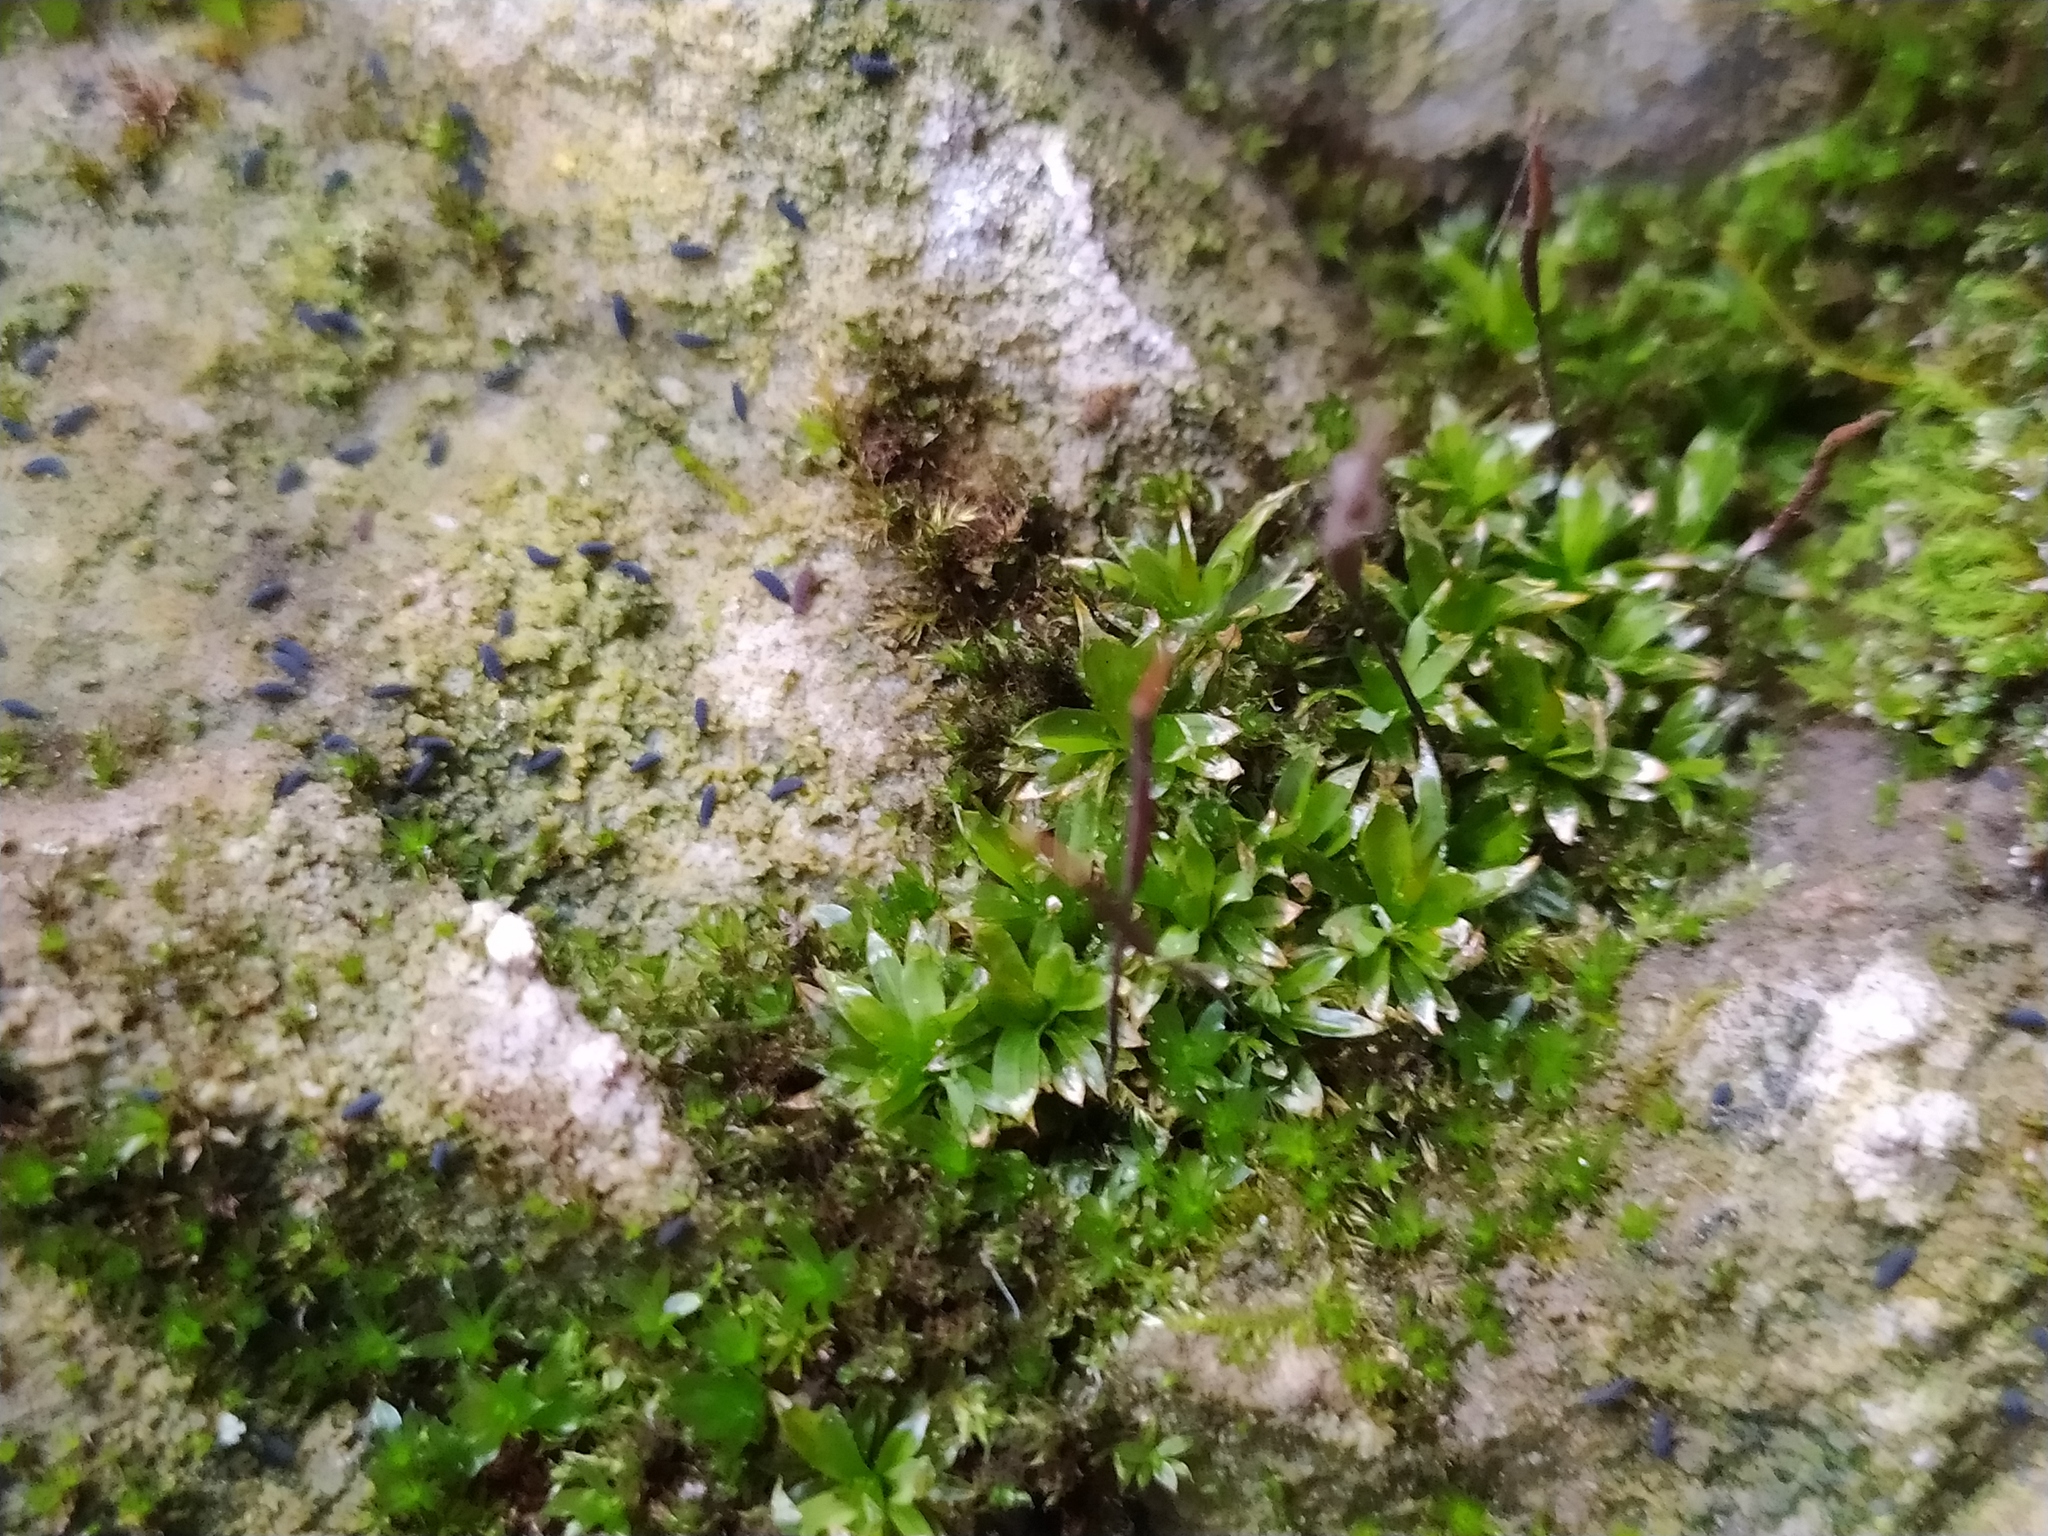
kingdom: Plantae
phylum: Bryophyta
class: Bryopsida
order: Pottiales
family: Pottiaceae
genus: Tortula
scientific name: Tortula subulata
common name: Upright screw-moss
